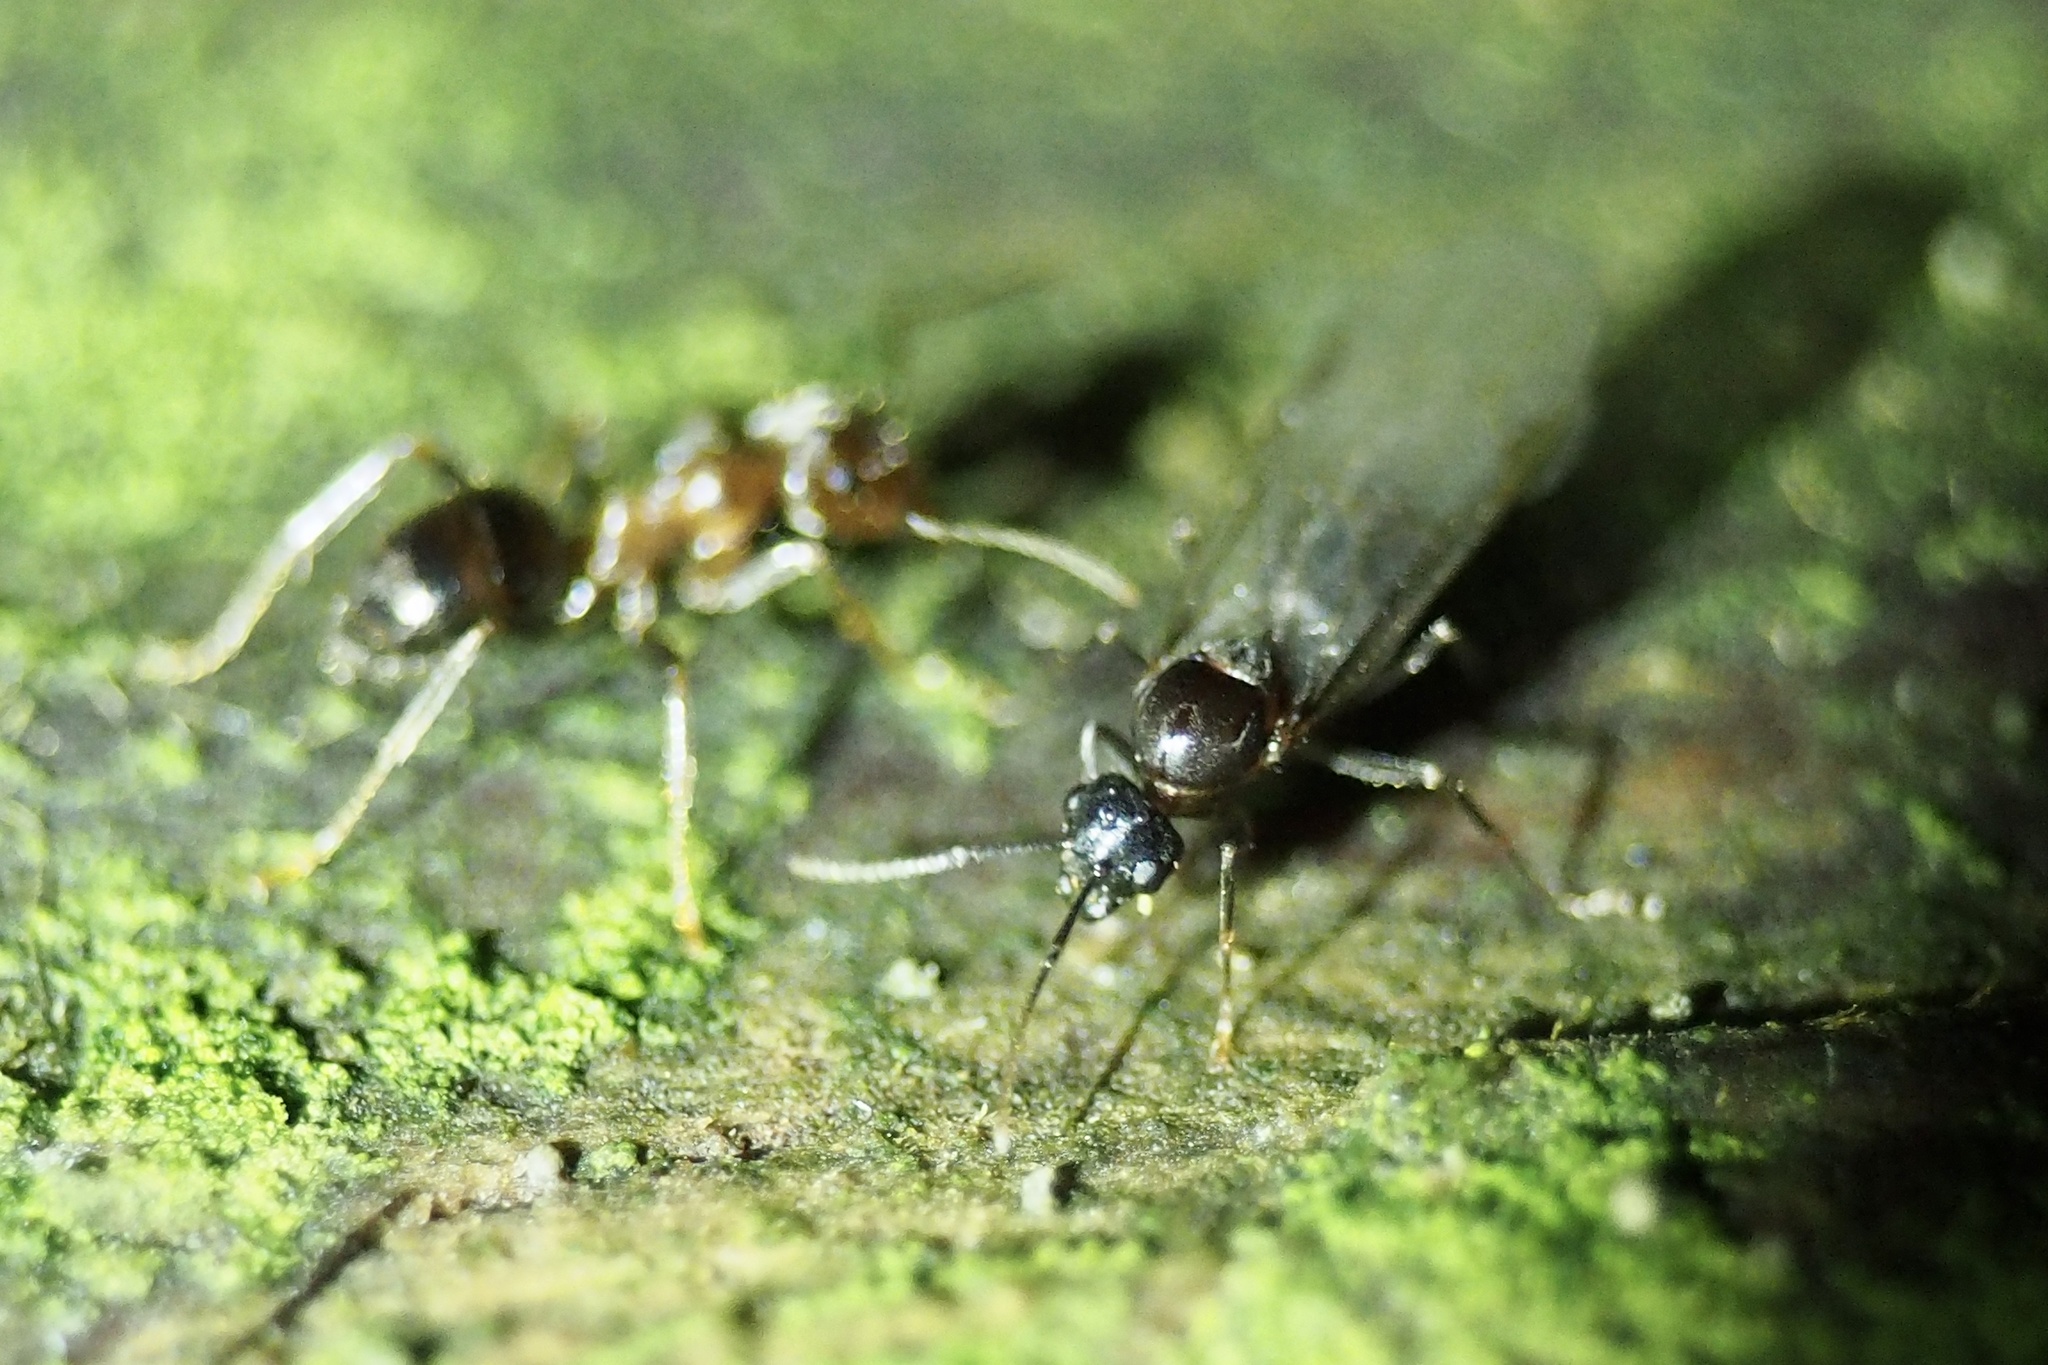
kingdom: Animalia
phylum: Arthropoda
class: Insecta
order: Hymenoptera
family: Formicidae
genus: Lasius
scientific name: Lasius hayashi
